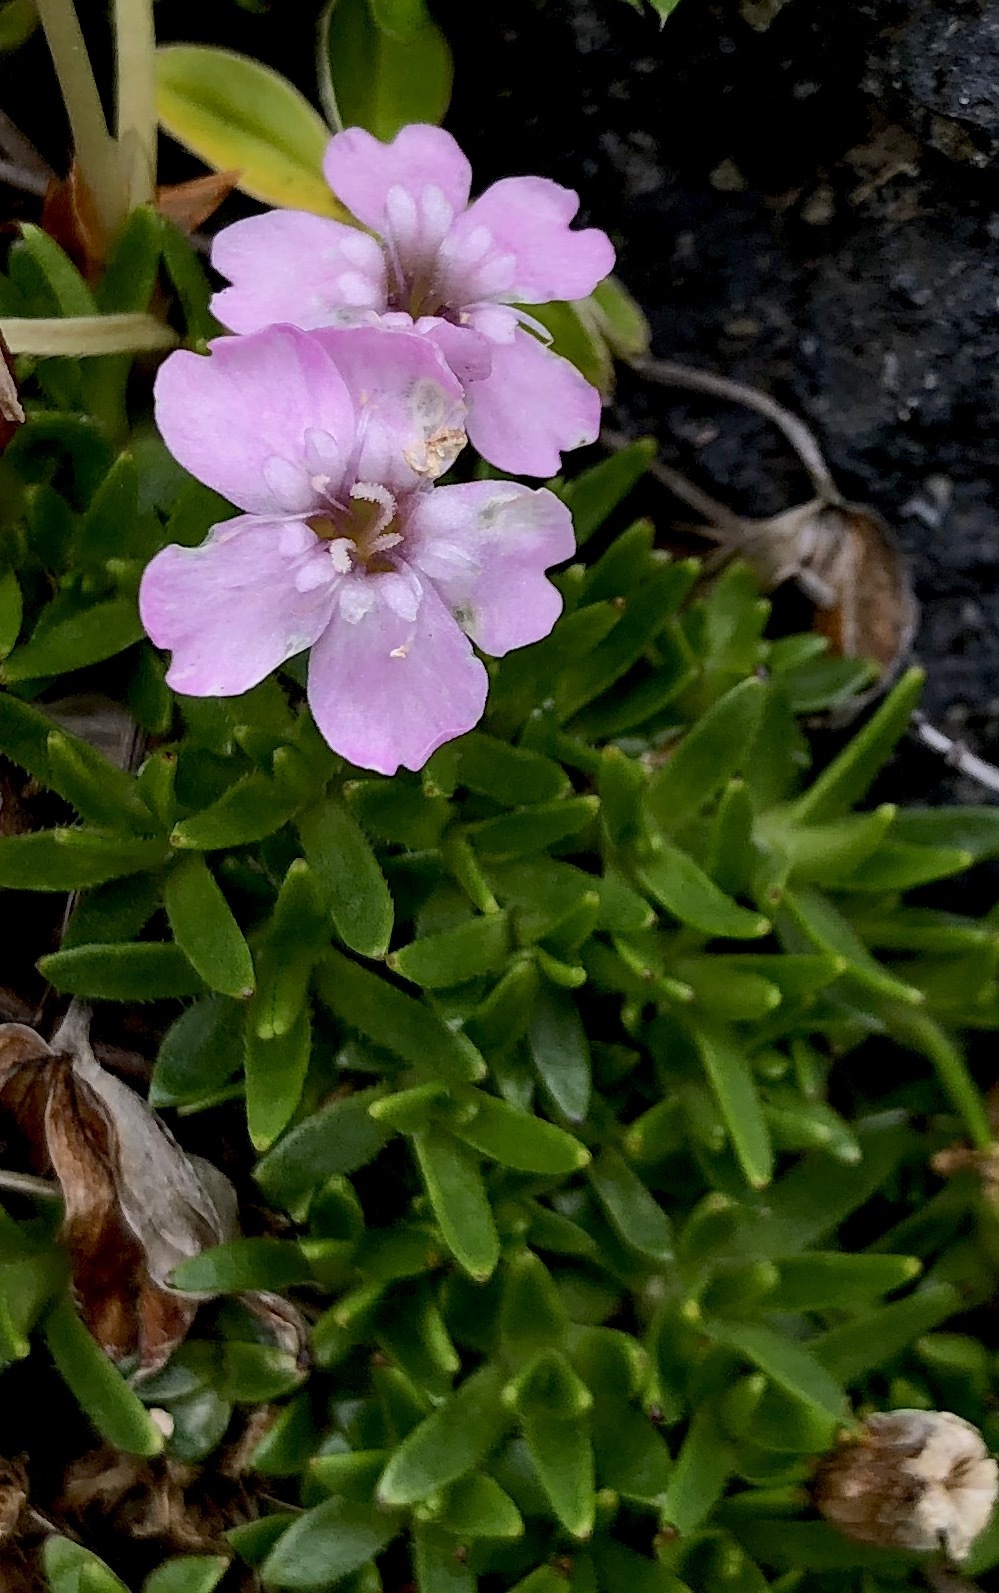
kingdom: Plantae
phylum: Tracheophyta
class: Magnoliopsida
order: Caryophyllales
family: Caryophyllaceae
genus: Silene
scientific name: Silene acaulis
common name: Moss campion
